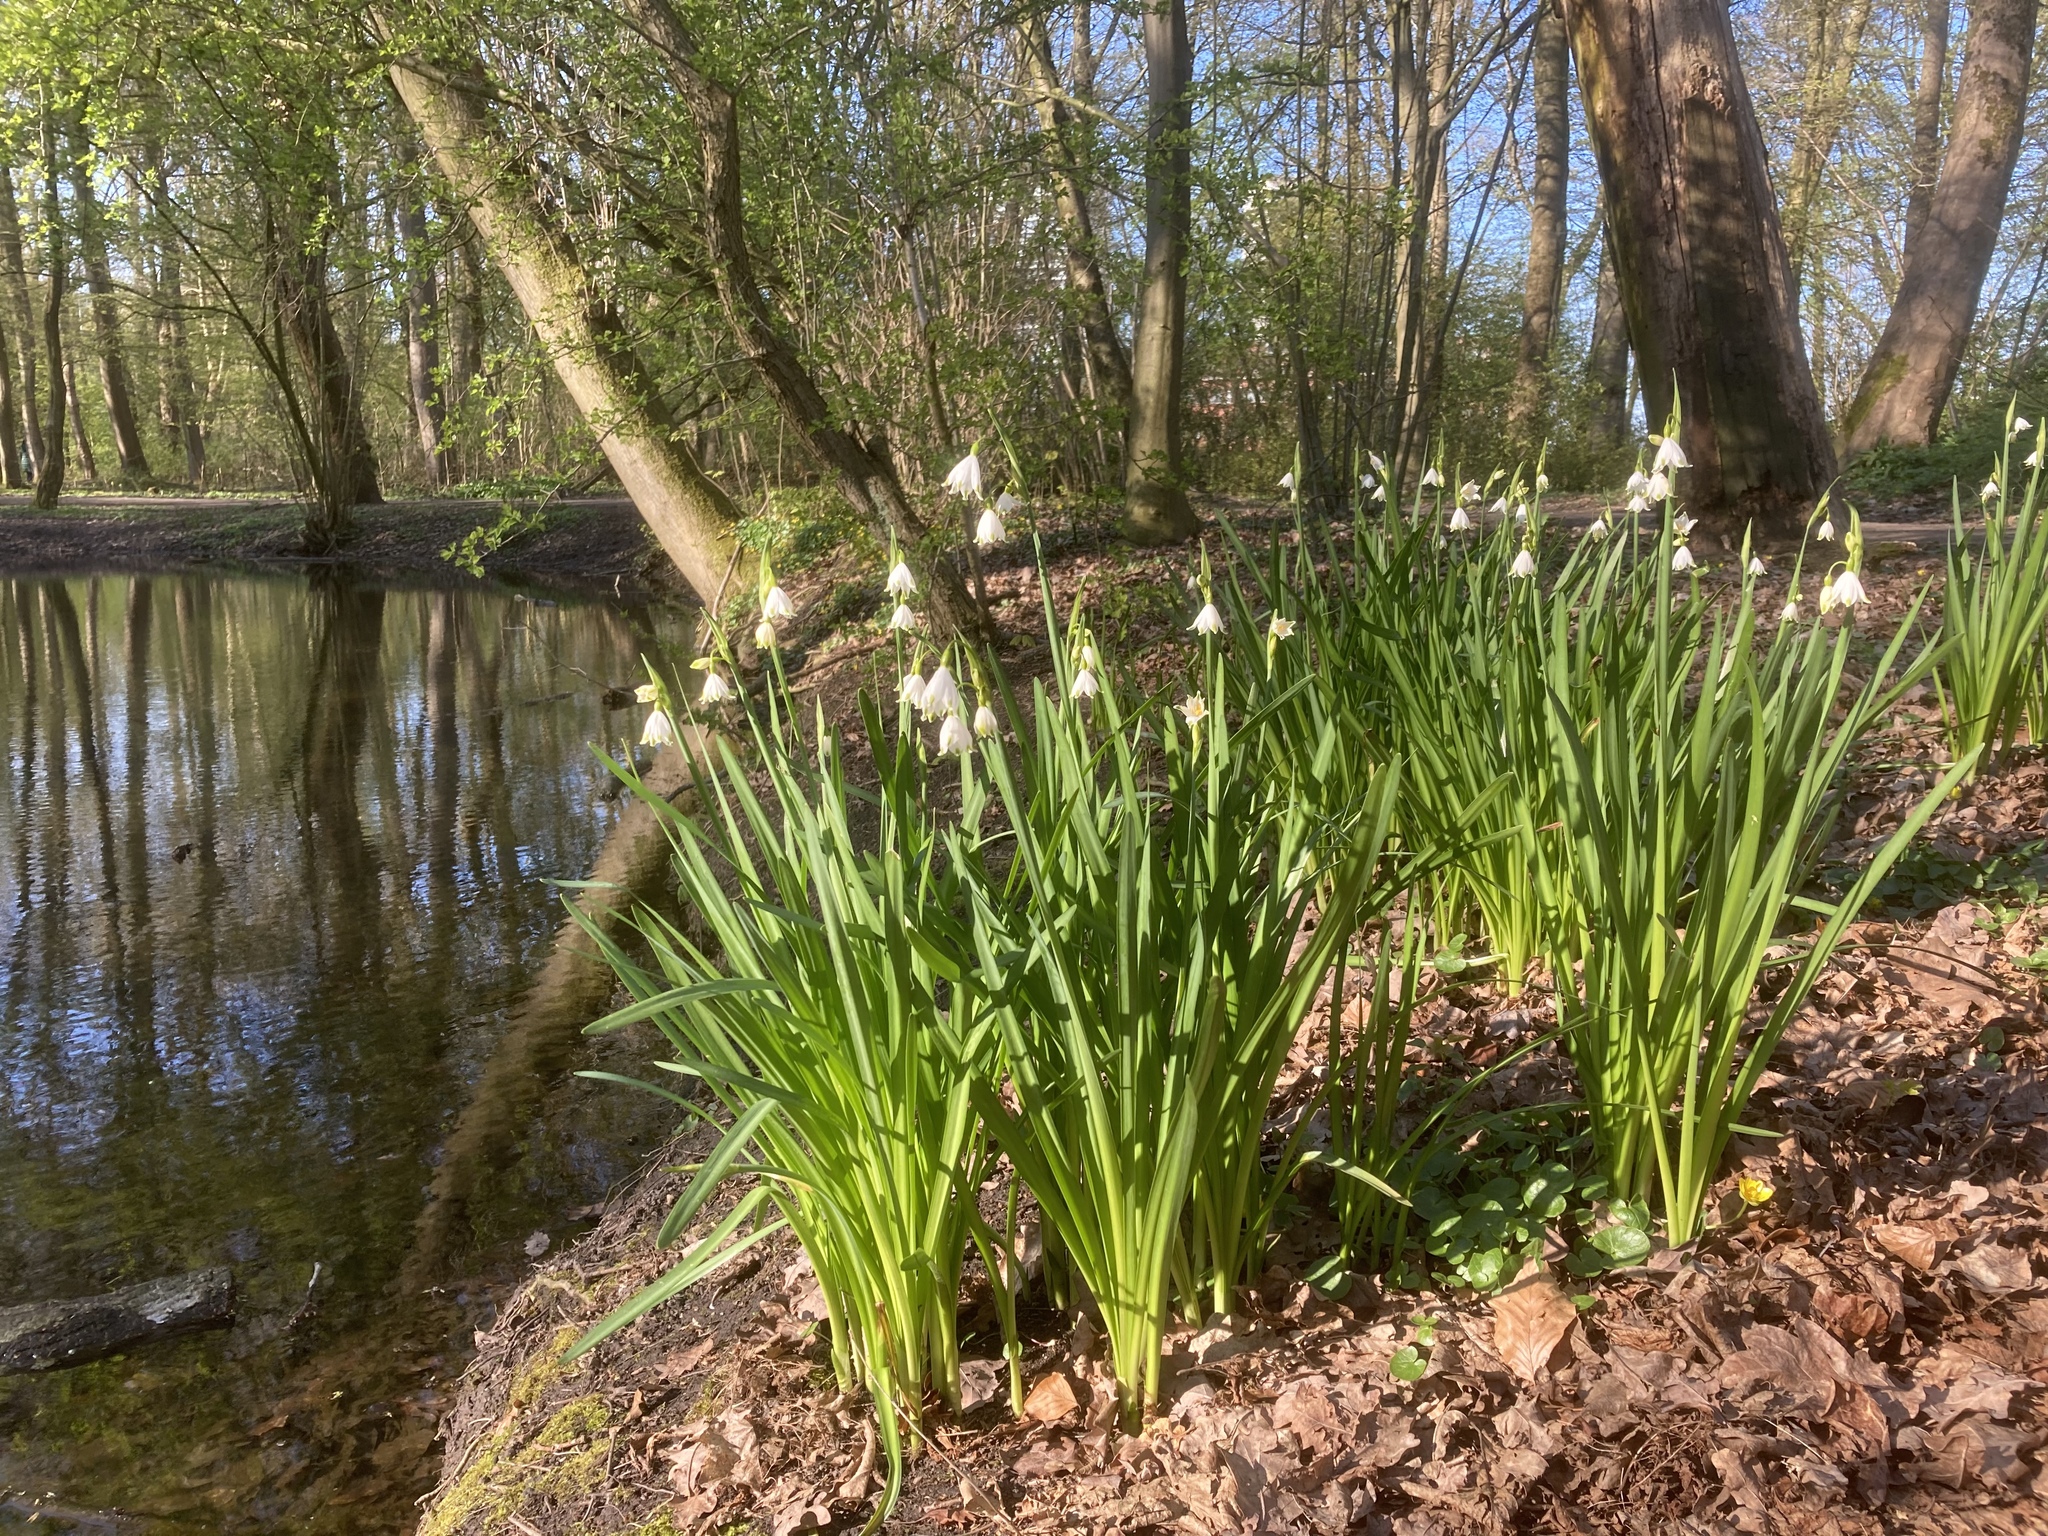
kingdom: Plantae
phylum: Tracheophyta
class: Liliopsida
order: Asparagales
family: Amaryllidaceae
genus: Leucojum
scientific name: Leucojum aestivum
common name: Summer snowflake
